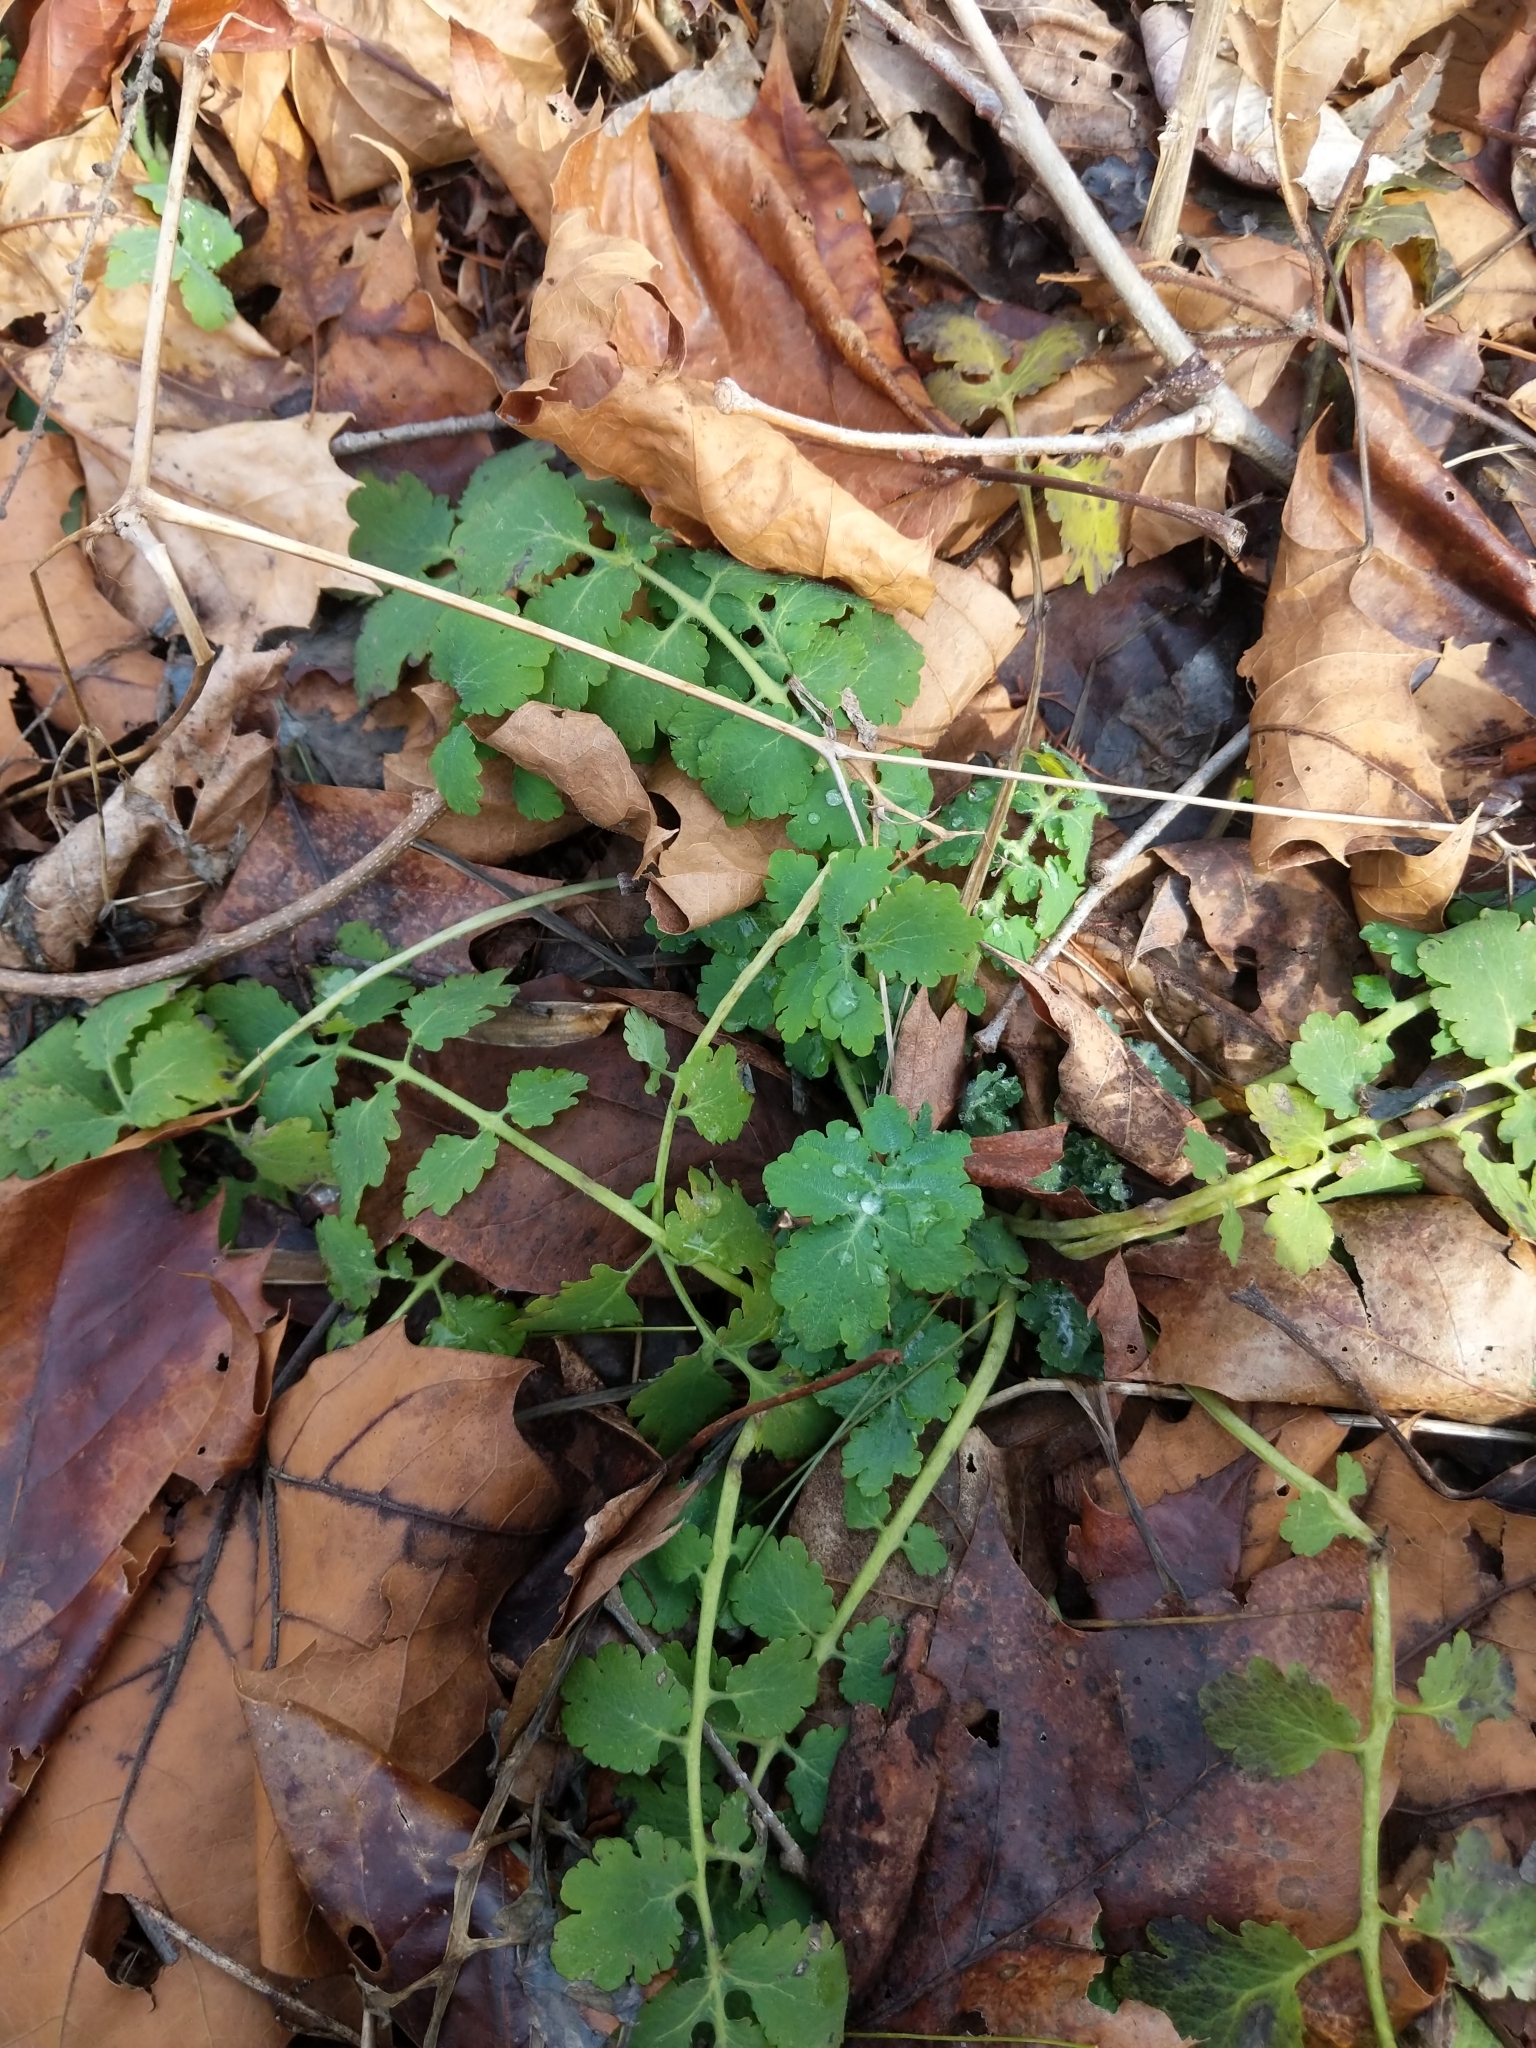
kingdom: Plantae
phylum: Tracheophyta
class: Magnoliopsida
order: Ranunculales
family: Papaveraceae
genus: Chelidonium
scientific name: Chelidonium majus
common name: Greater celandine
